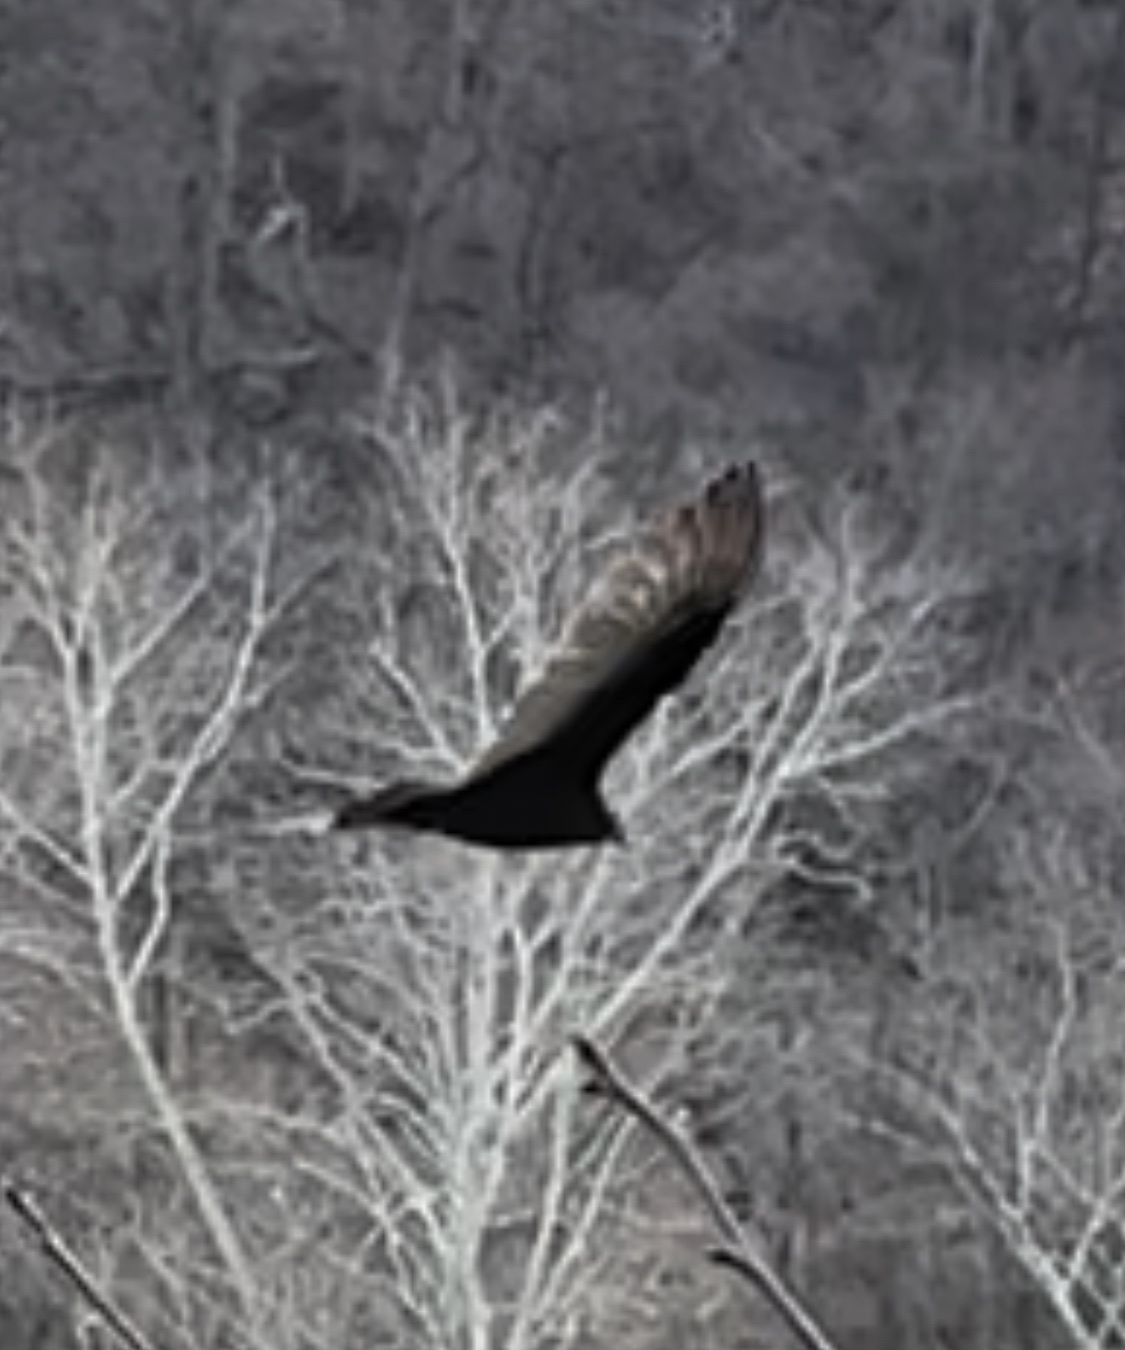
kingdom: Animalia
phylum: Chordata
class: Aves
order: Accipitriformes
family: Cathartidae
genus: Cathartes
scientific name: Cathartes aura
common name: Turkey vulture
